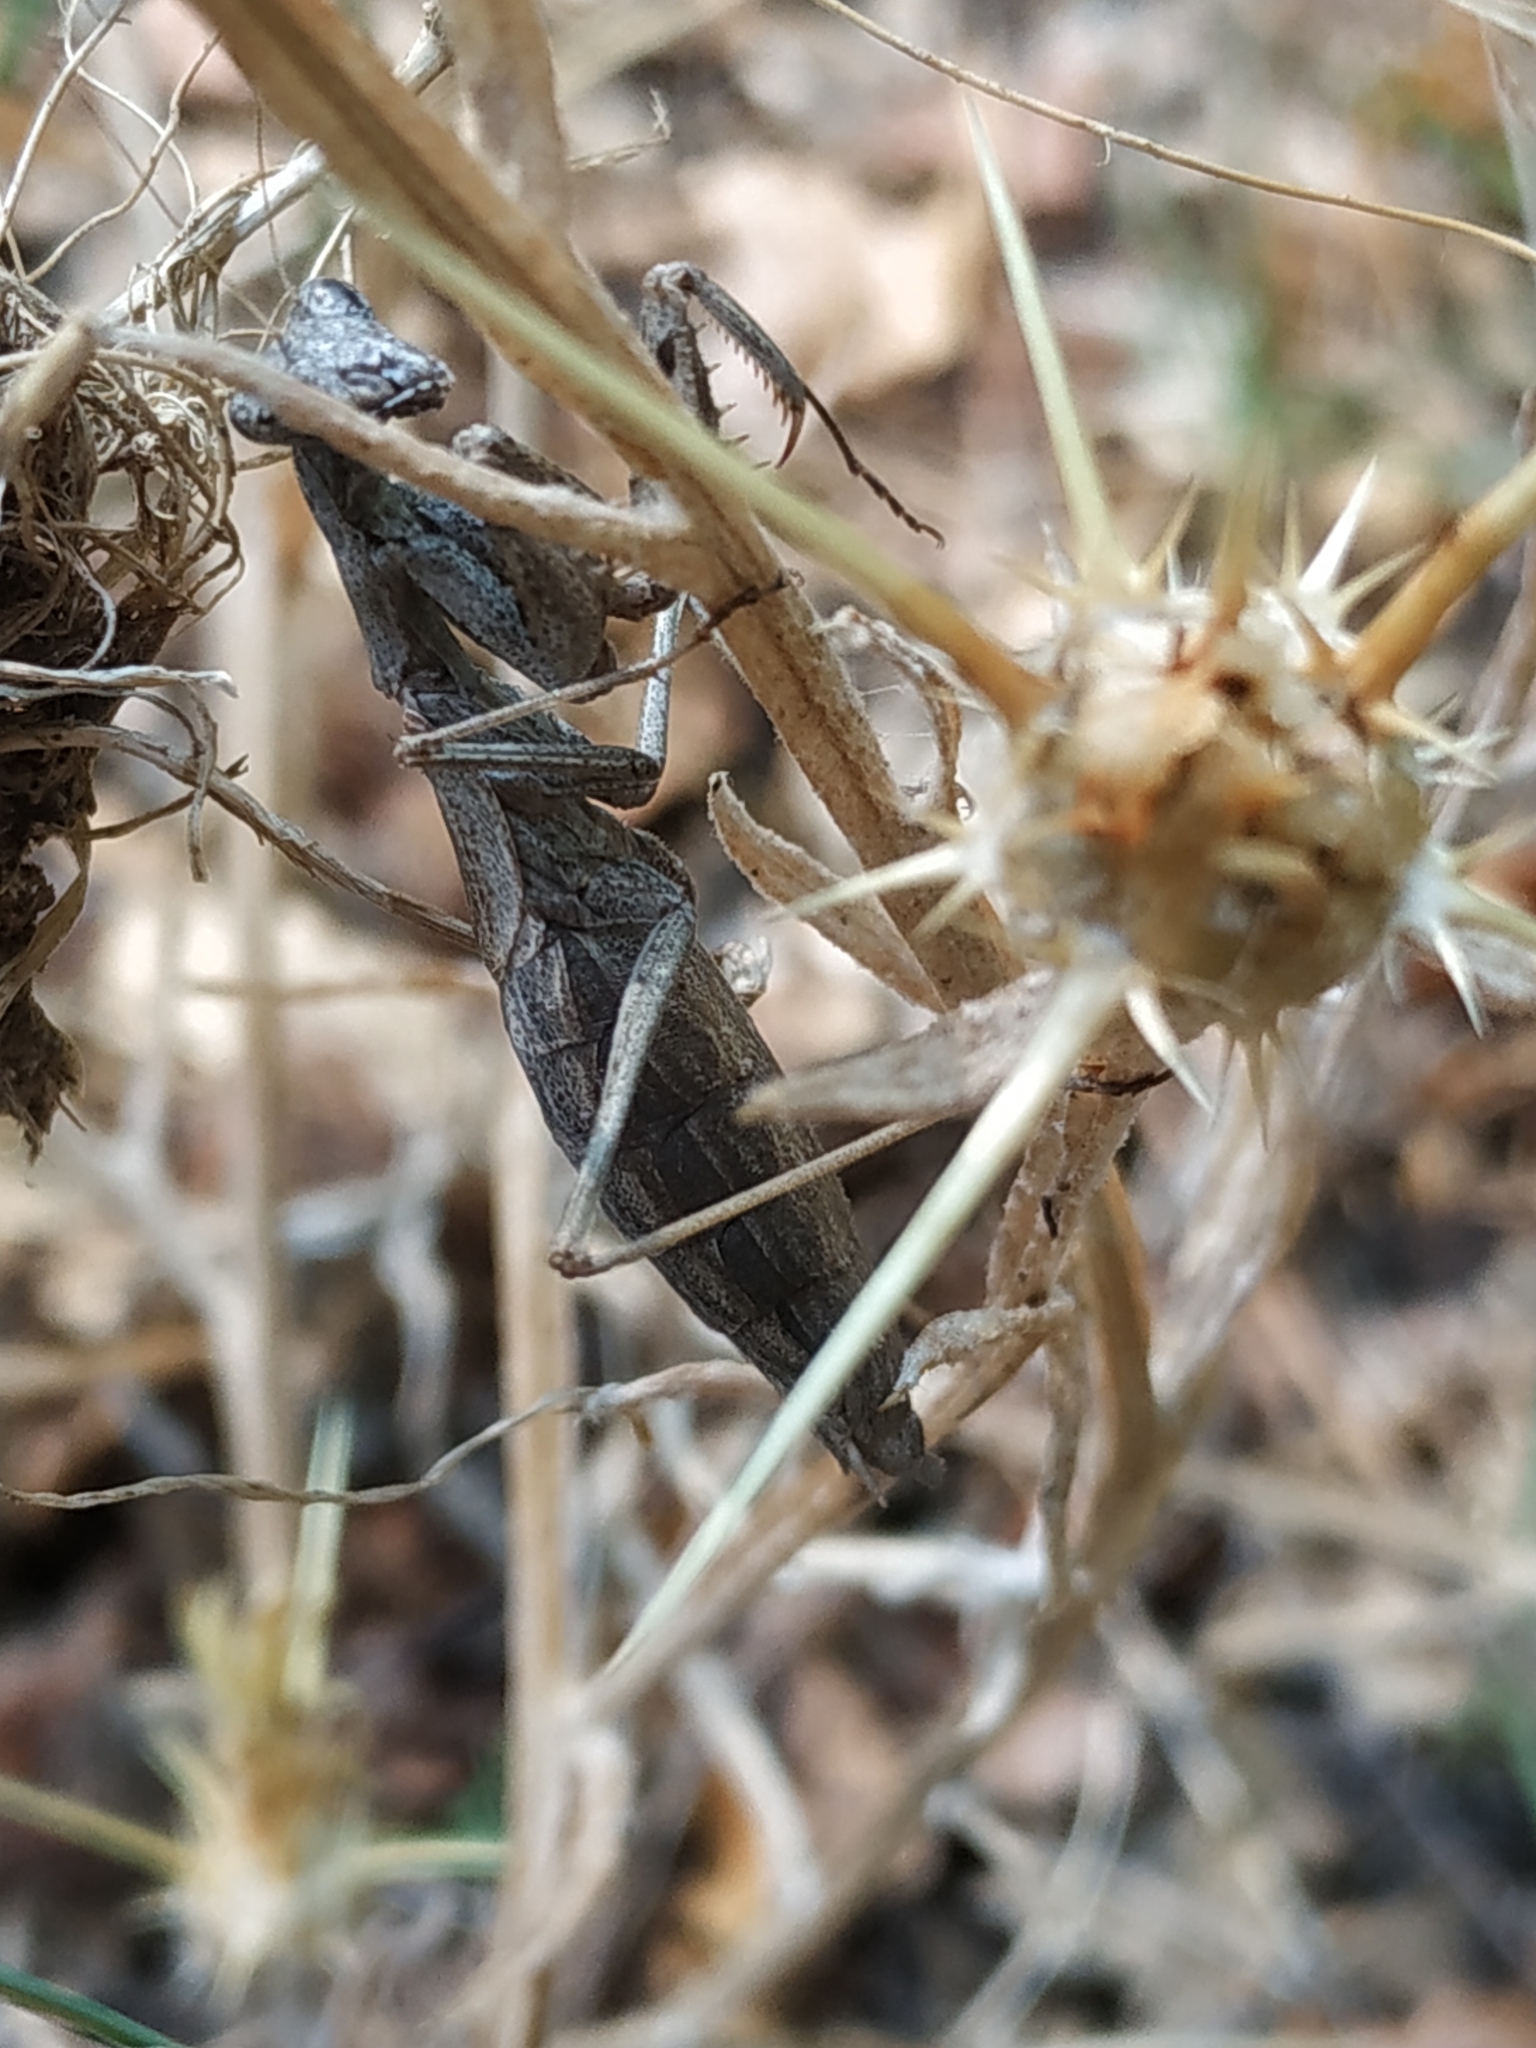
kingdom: Animalia
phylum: Arthropoda
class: Insecta
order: Mantodea
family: Amelidae
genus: Ameles
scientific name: Ameles decolor
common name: Dwarf mantis
